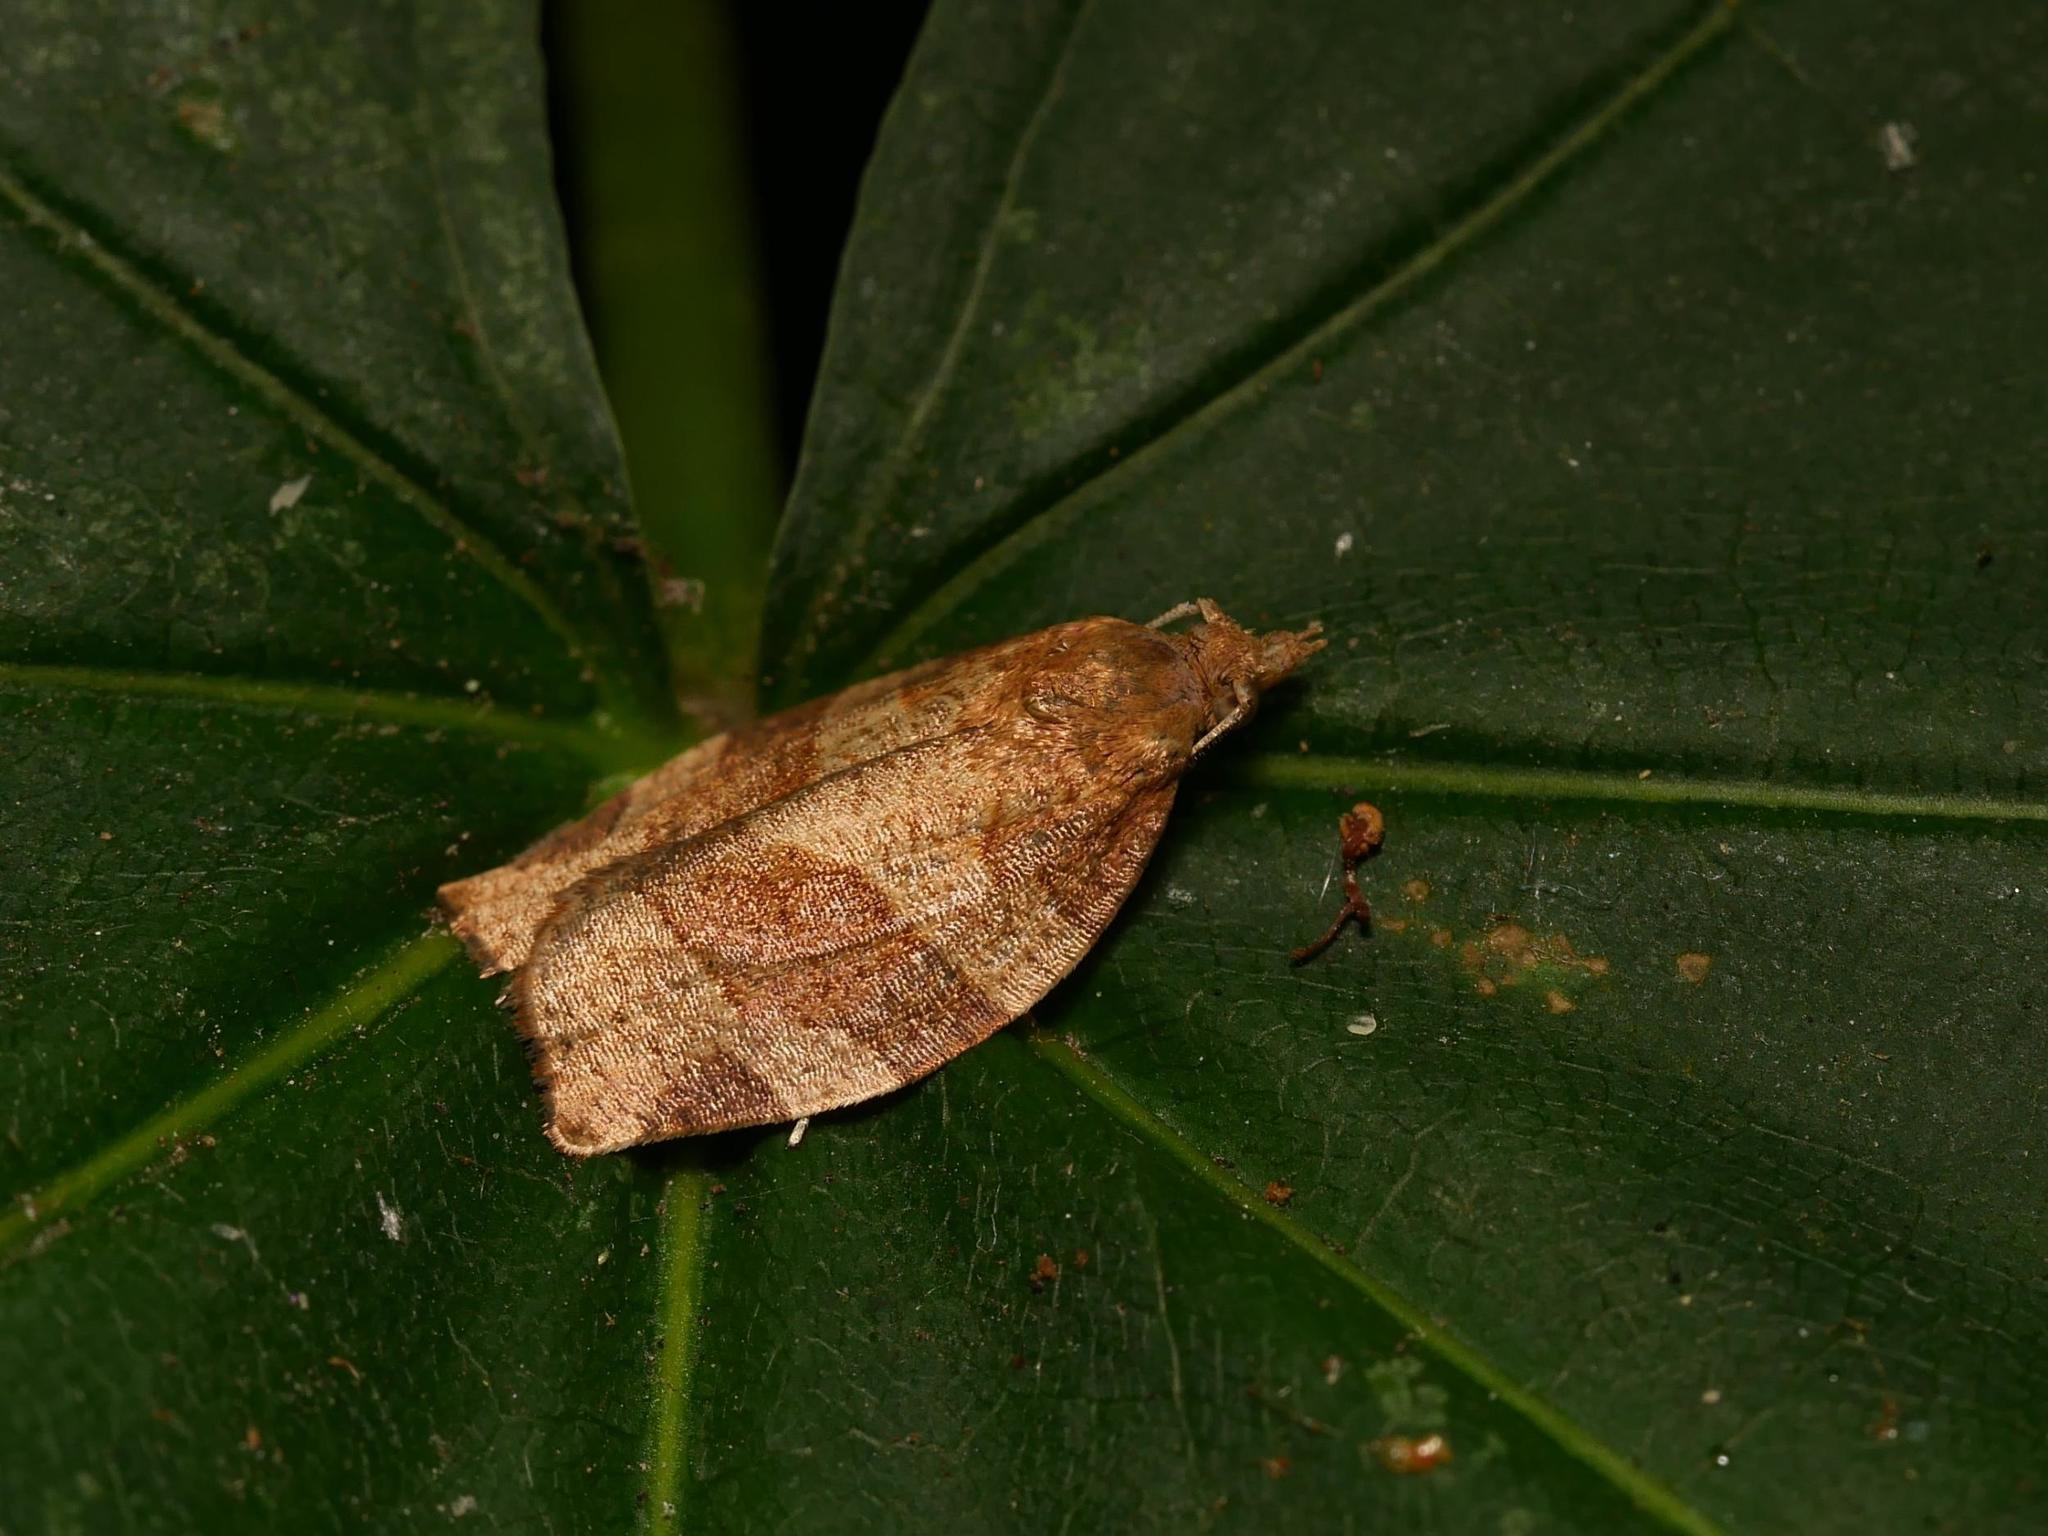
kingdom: Animalia
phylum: Arthropoda
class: Insecta
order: Lepidoptera
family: Tortricidae
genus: Pandemis
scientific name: Pandemis cerasana
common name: Barred fruit-tree tortrix
